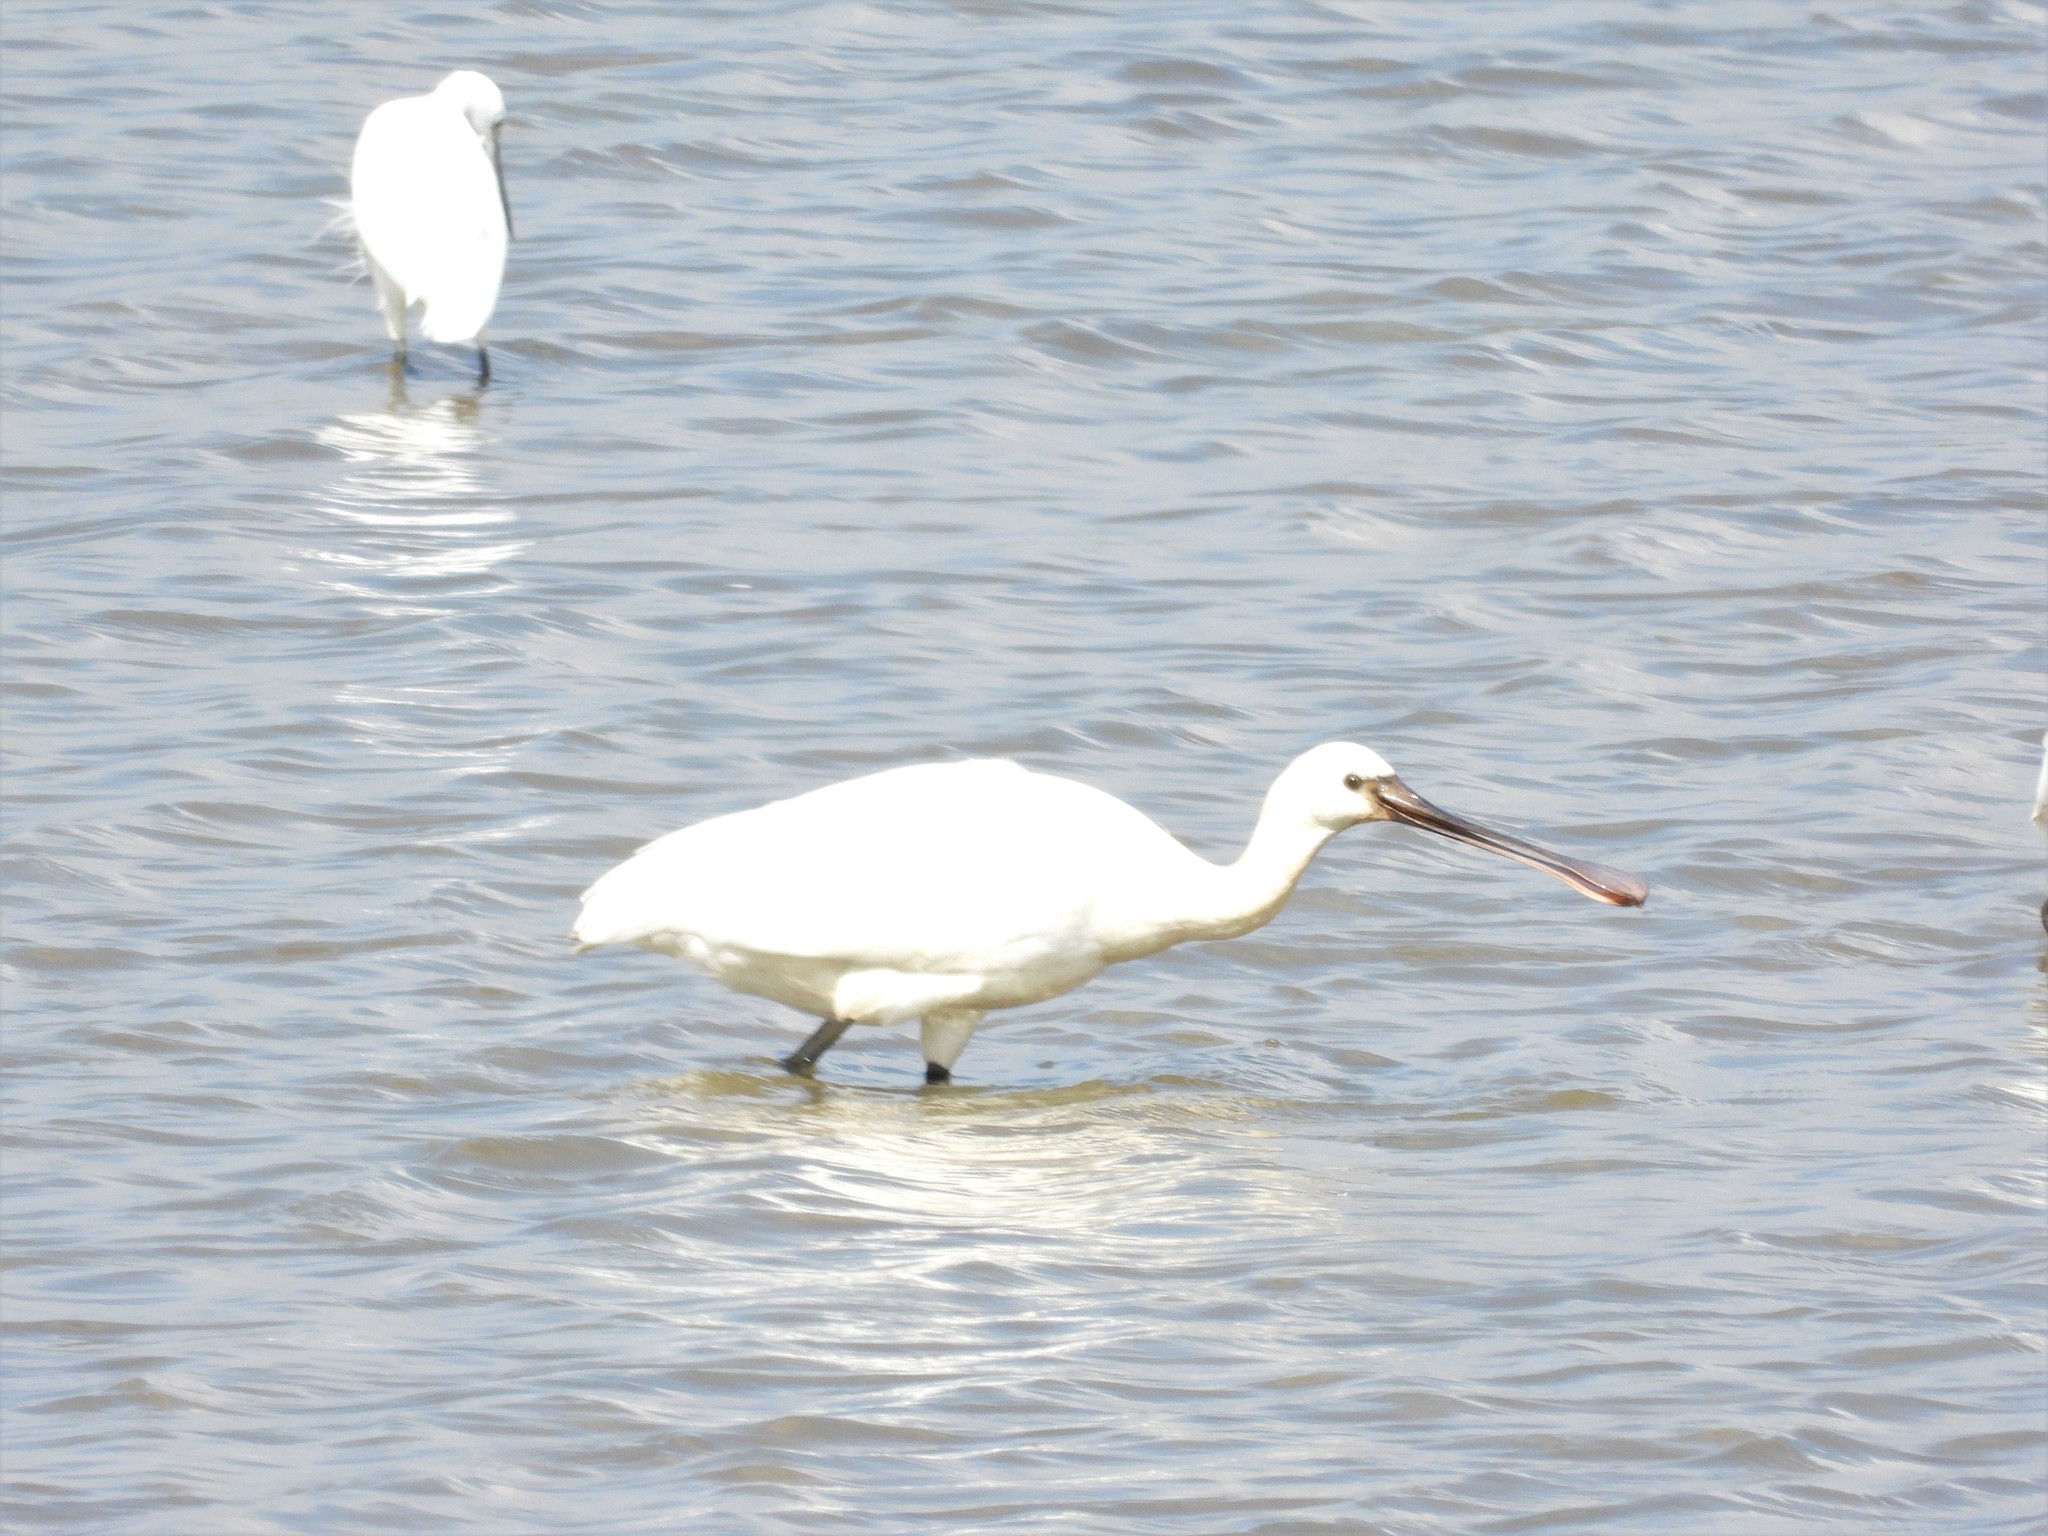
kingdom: Animalia
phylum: Chordata
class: Aves
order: Pelecaniformes
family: Threskiornithidae
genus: Platalea
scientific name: Platalea leucorodia
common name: Eurasian spoonbill
